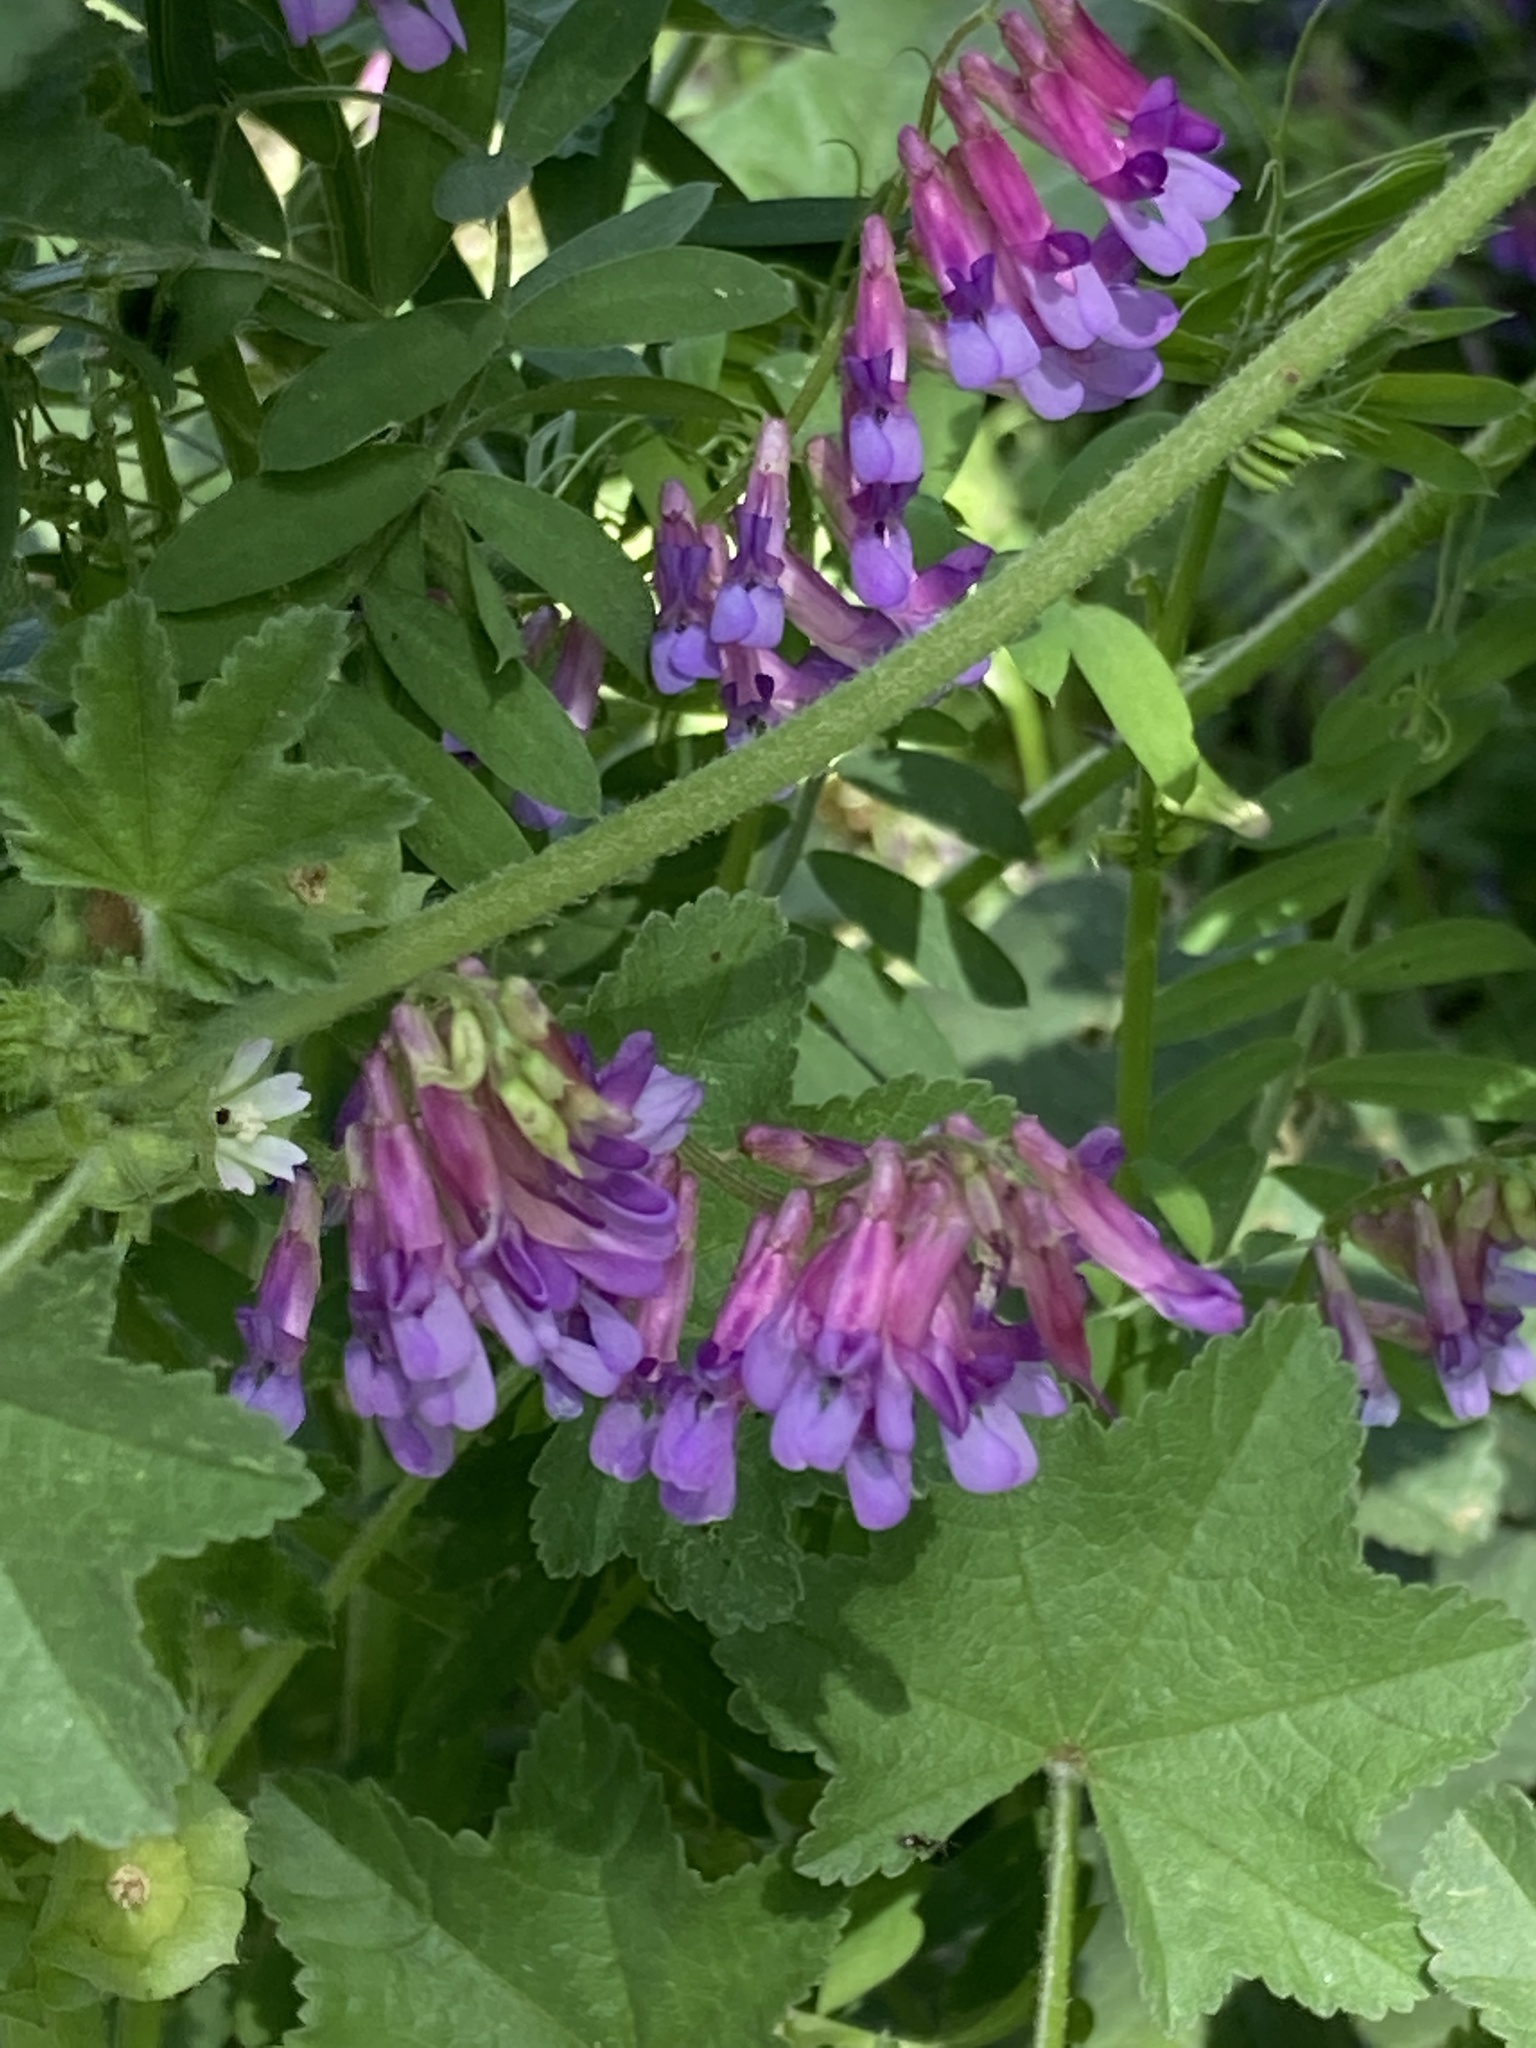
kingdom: Plantae
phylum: Tracheophyta
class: Magnoliopsida
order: Fabales
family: Fabaceae
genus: Vicia
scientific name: Vicia villosa
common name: Fodder vetch
